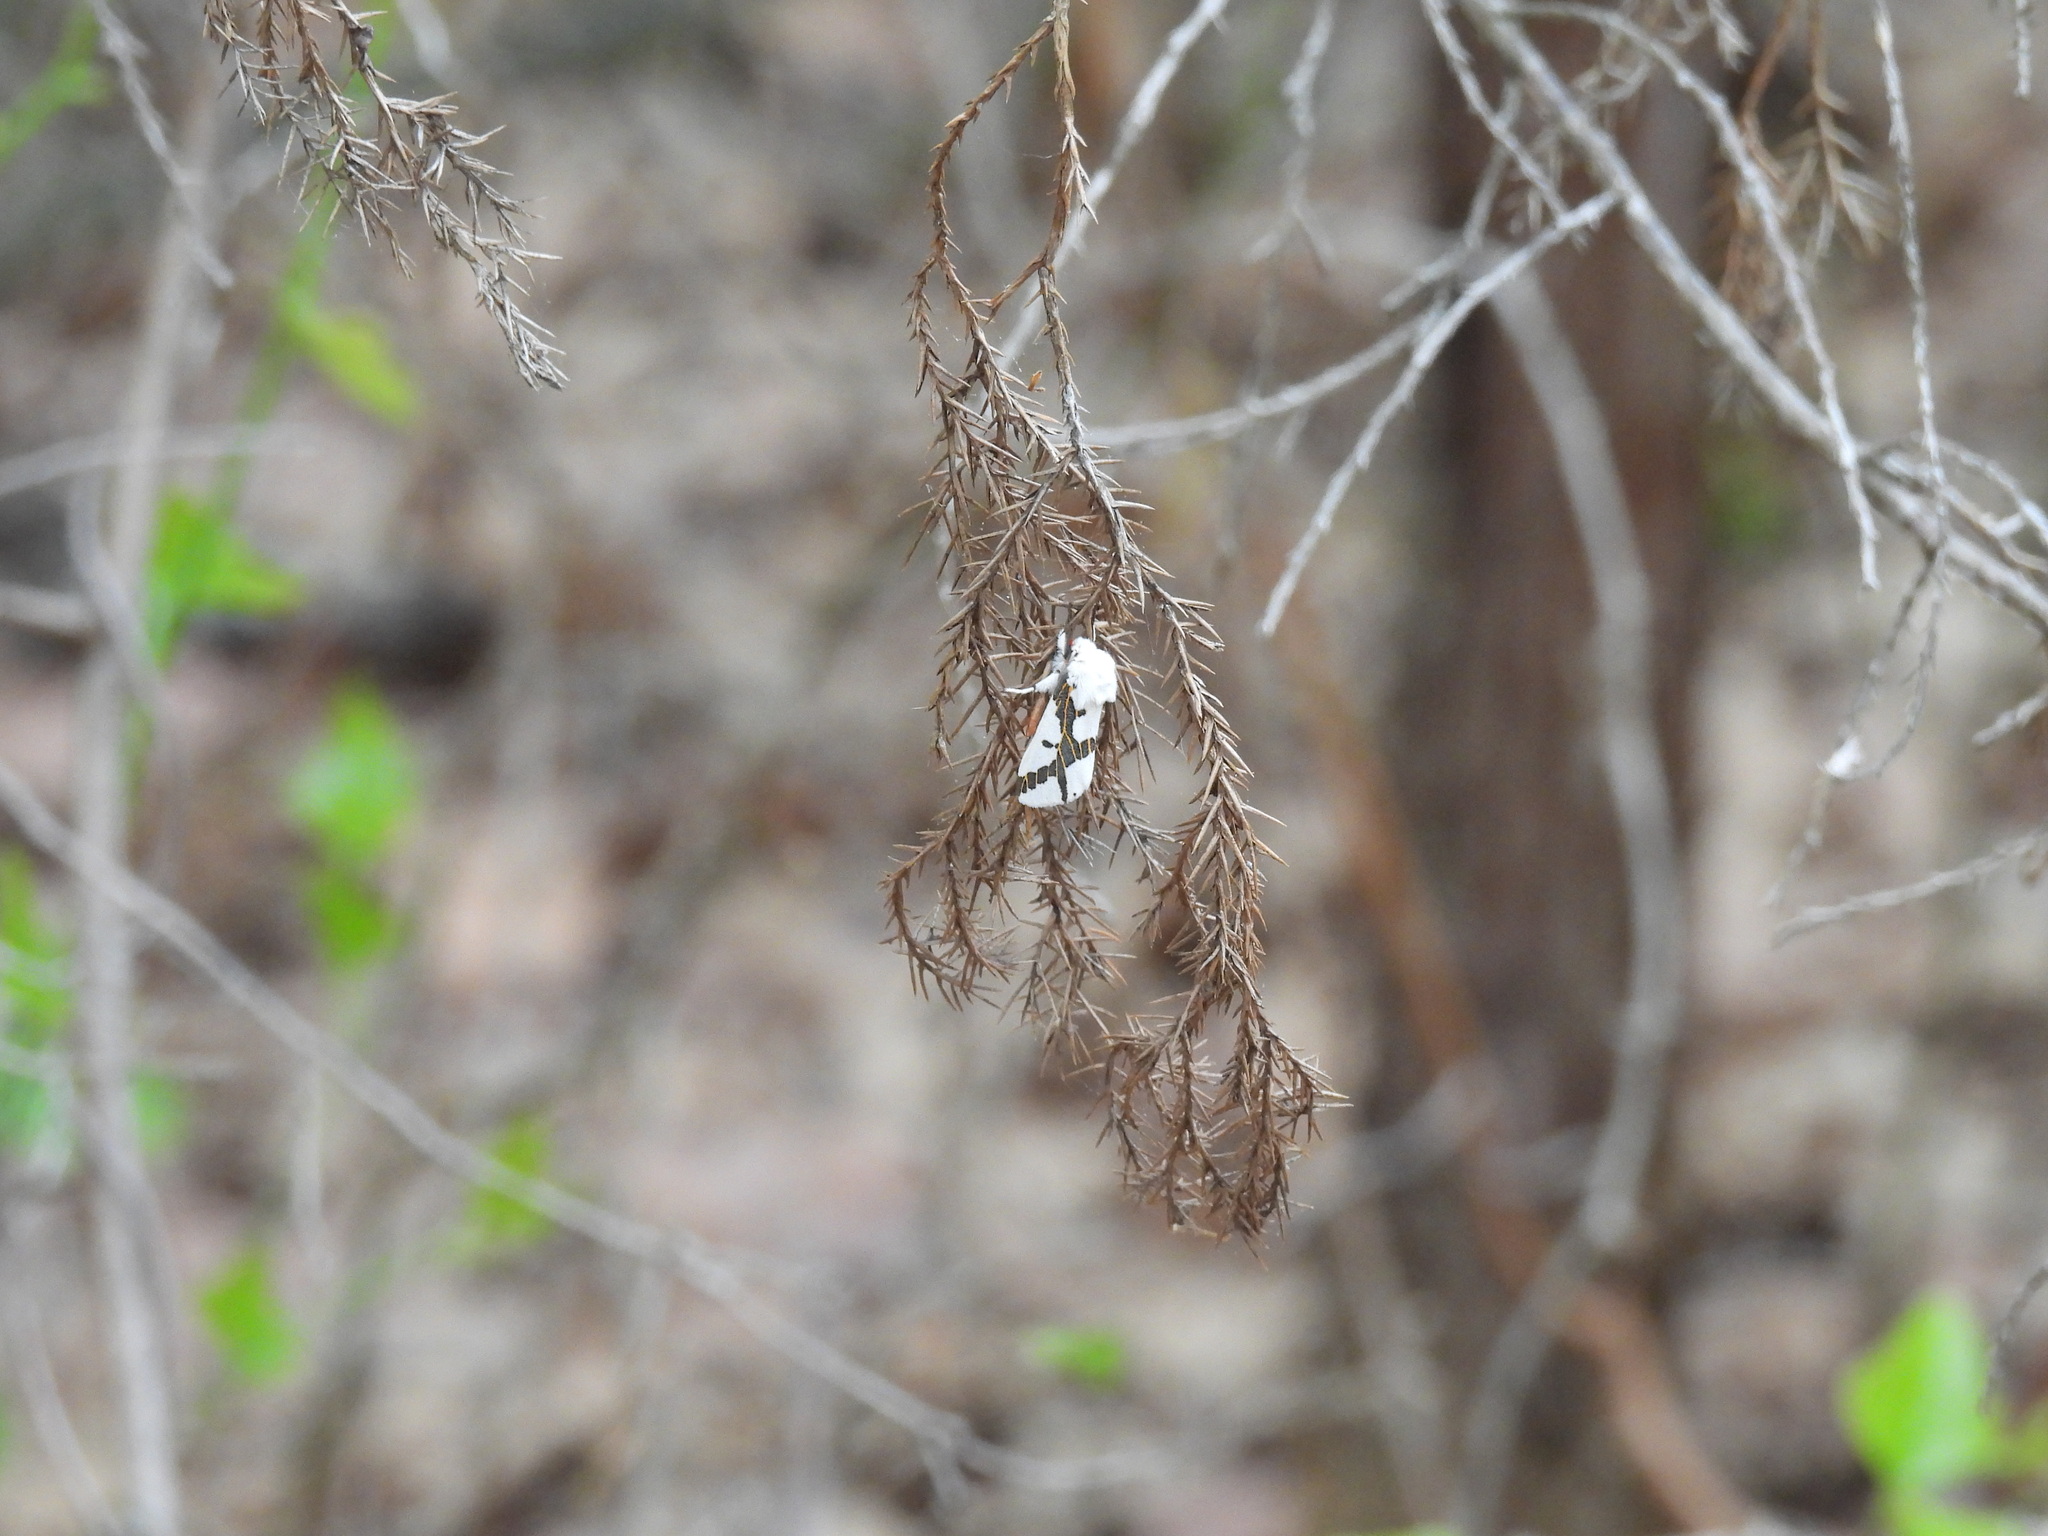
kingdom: Animalia
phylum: Arthropoda
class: Insecta
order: Lepidoptera
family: Erebidae
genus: Euerythra
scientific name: Euerythra phasma
